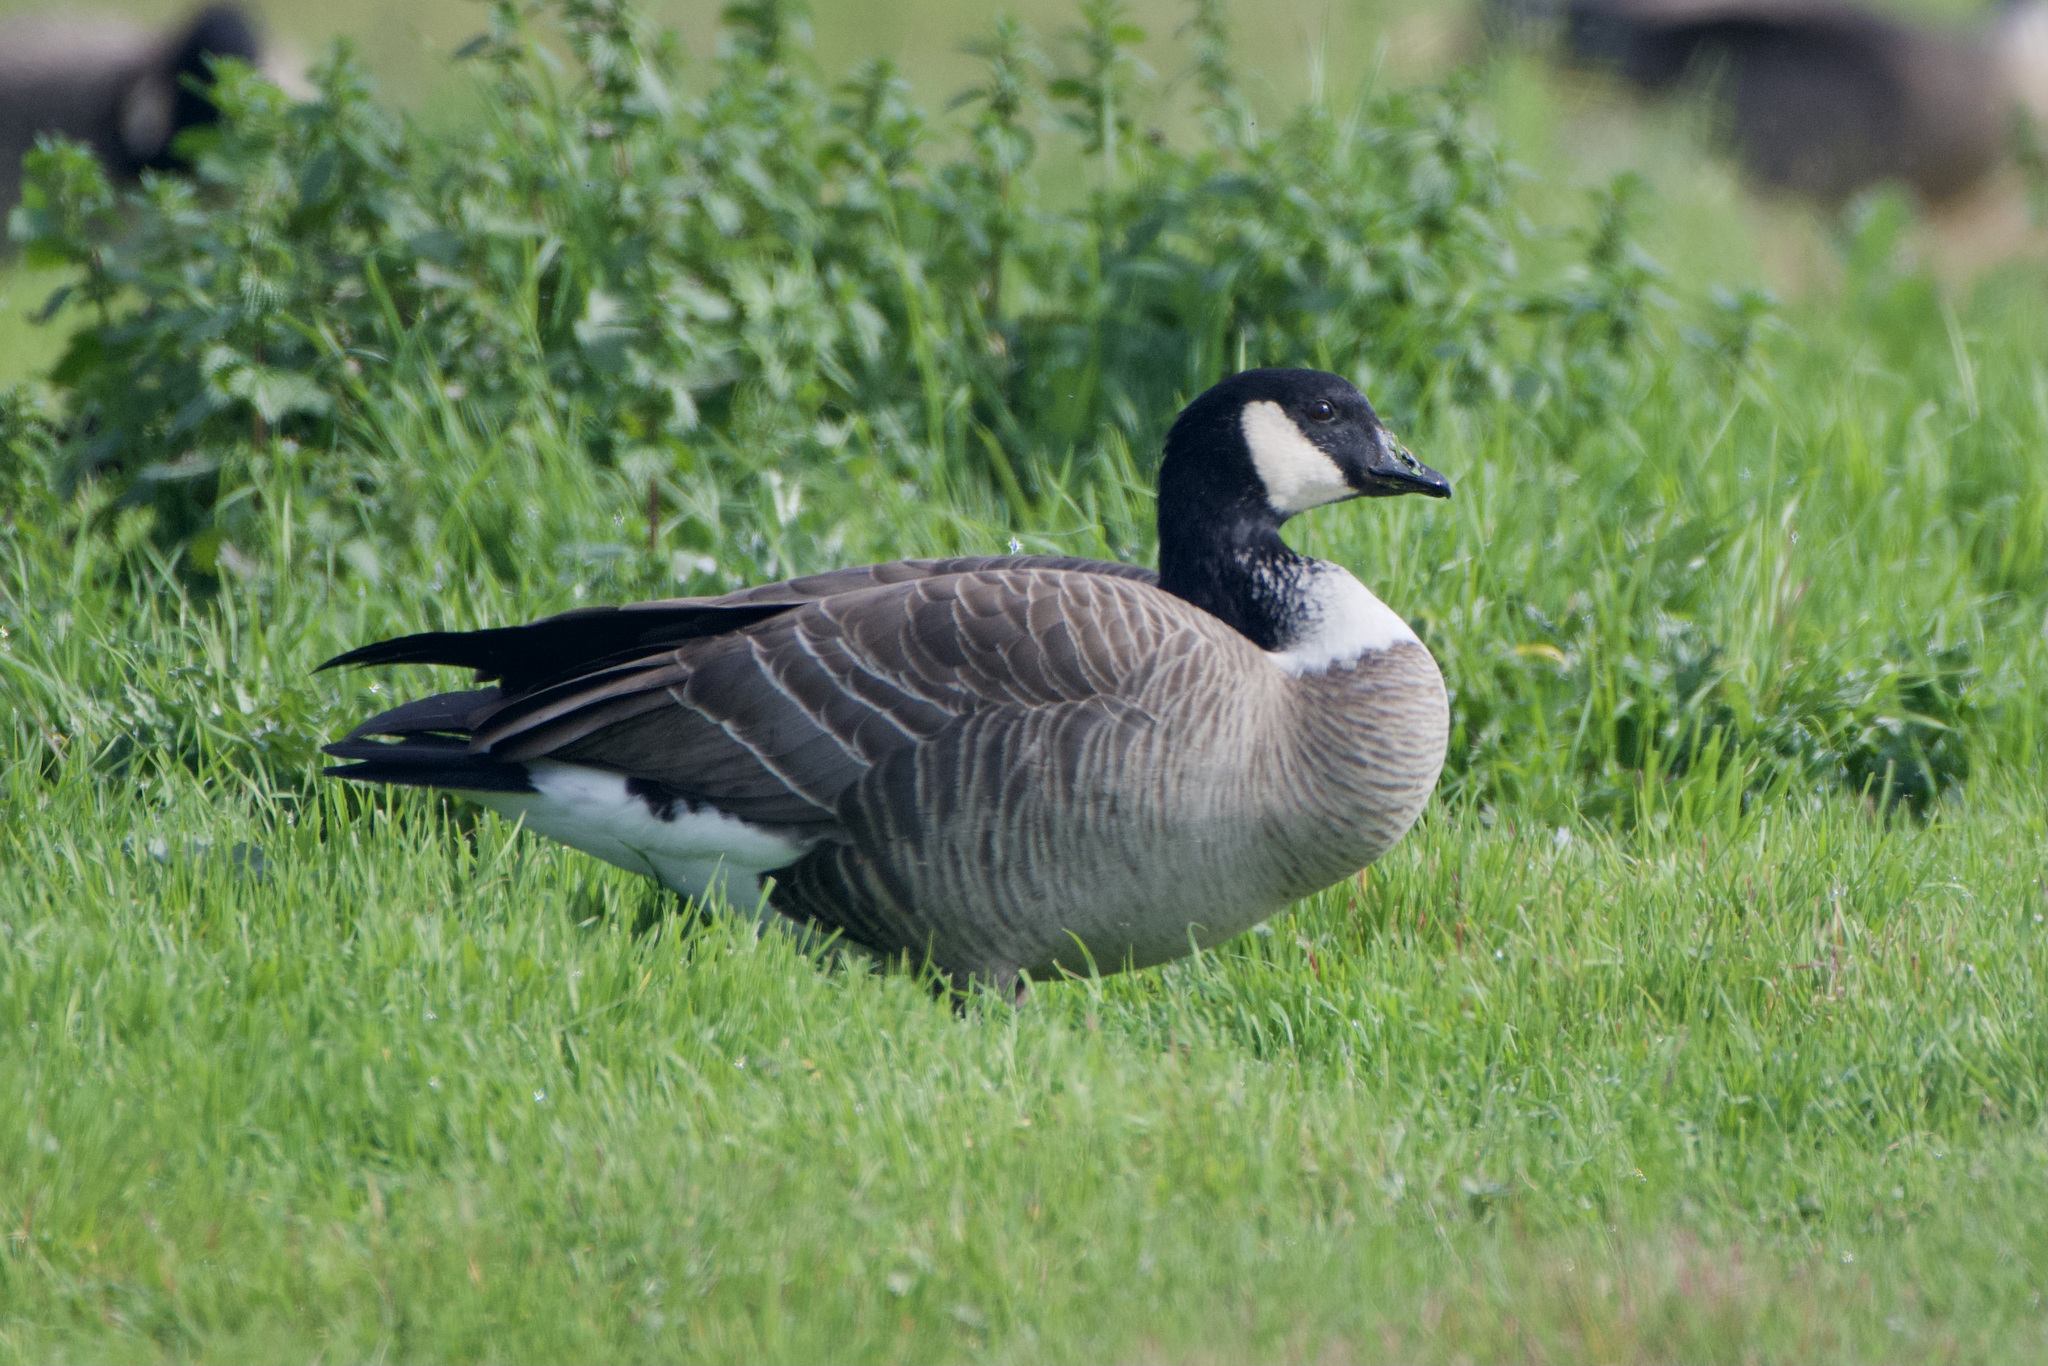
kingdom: Animalia
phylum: Chordata
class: Aves
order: Anseriformes
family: Anatidae
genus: Branta
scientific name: Branta hutchinsii
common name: Cackling goose
